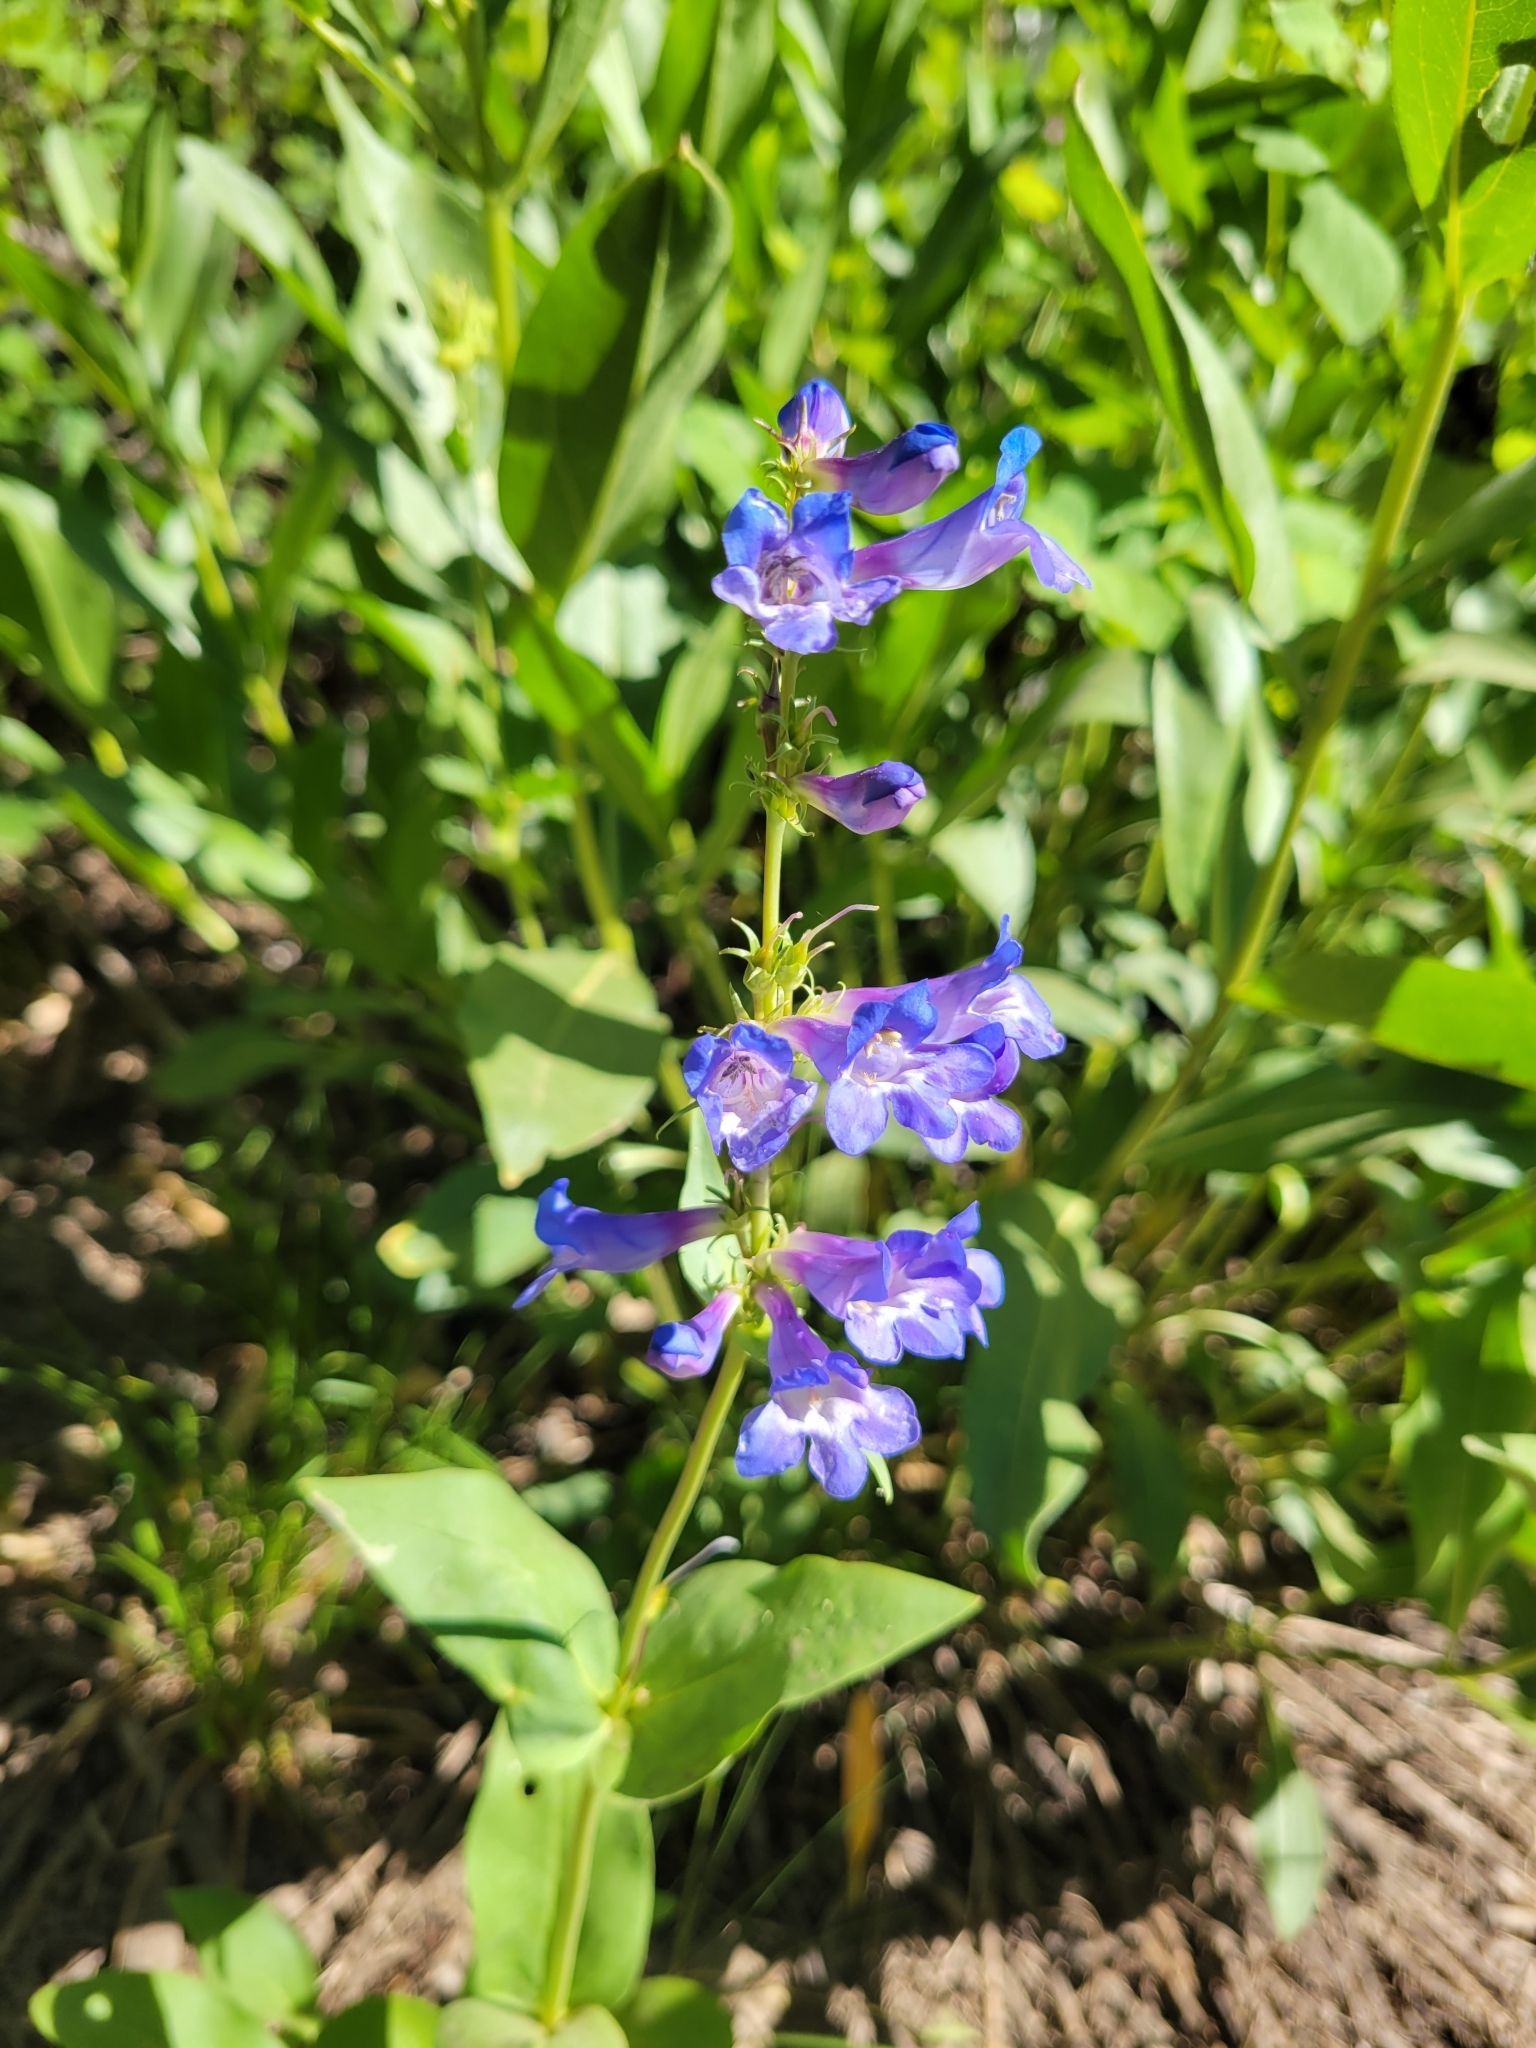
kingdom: Plantae
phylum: Tracheophyta
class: Magnoliopsida
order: Lamiales
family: Plantaginaceae
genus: Penstemon
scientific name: Penstemon cyananthus
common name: Wasatch penstemon
